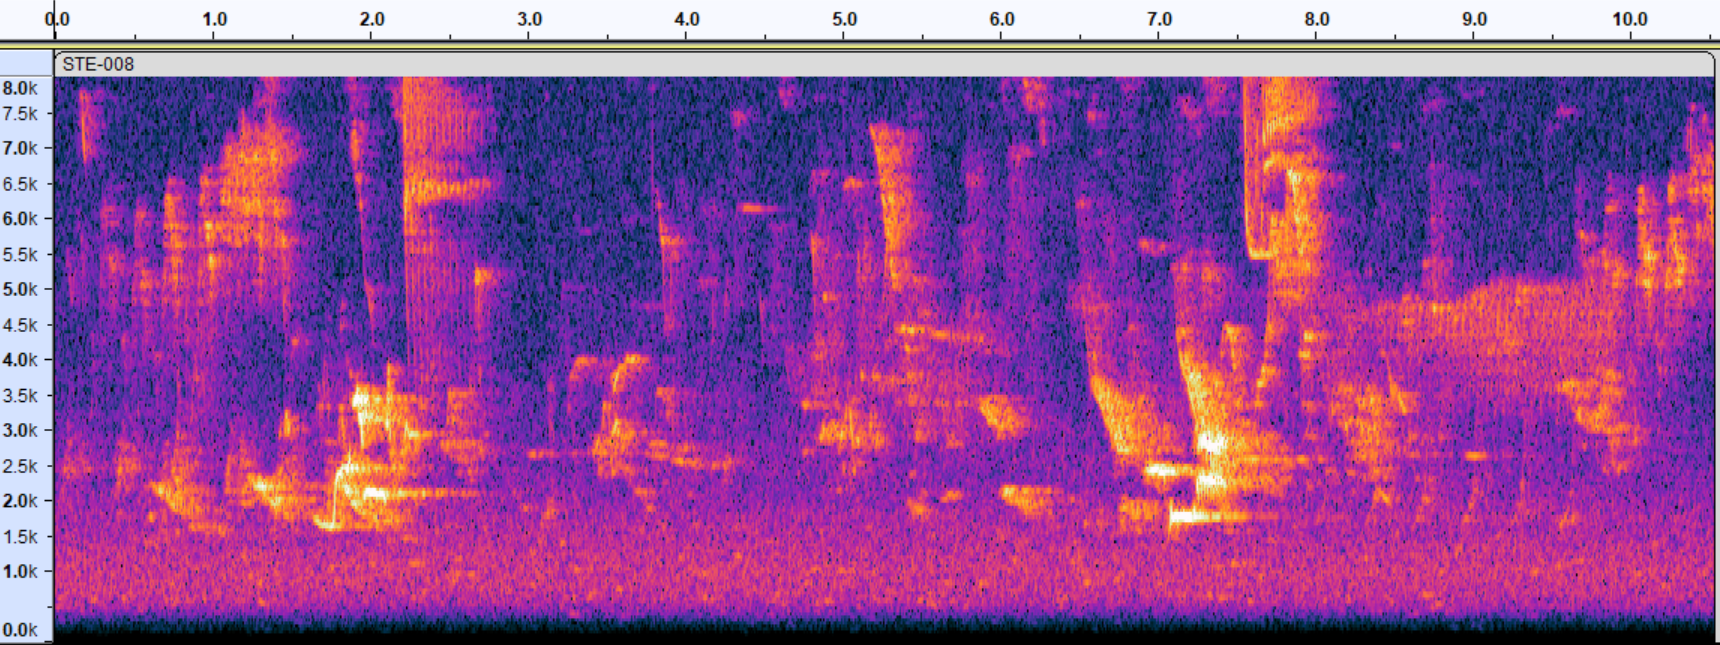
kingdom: Animalia
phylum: Chordata
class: Aves
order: Passeriformes
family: Turdidae
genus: Hylocichla
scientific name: Hylocichla mustelina
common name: Wood thrush
